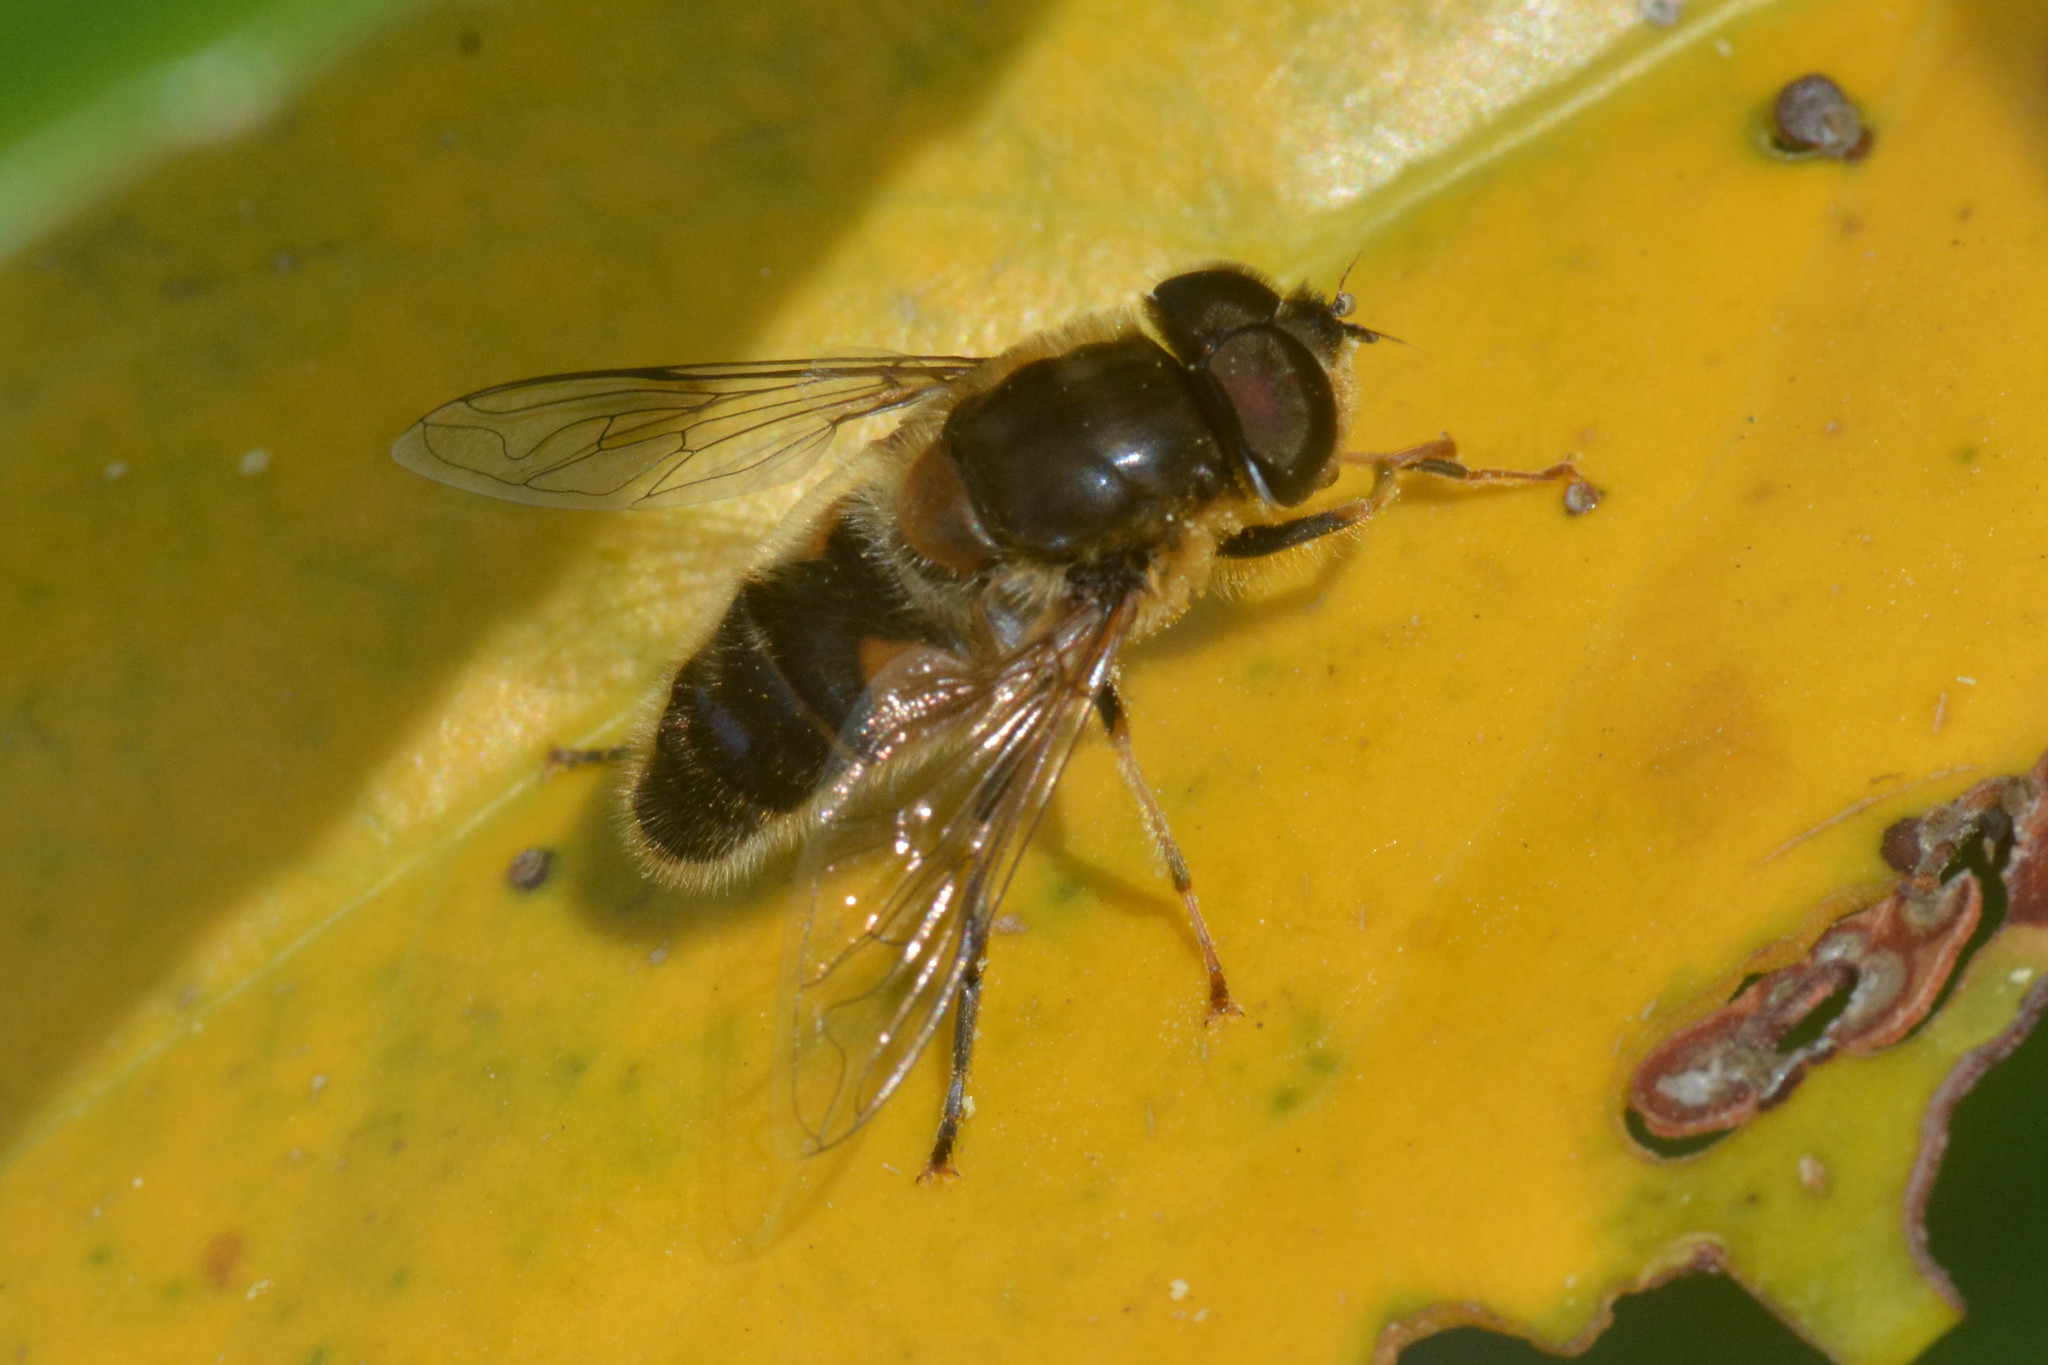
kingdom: Animalia
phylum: Arthropoda
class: Insecta
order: Diptera
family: Syrphidae
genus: Eristalis
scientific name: Eristalis pertinax
